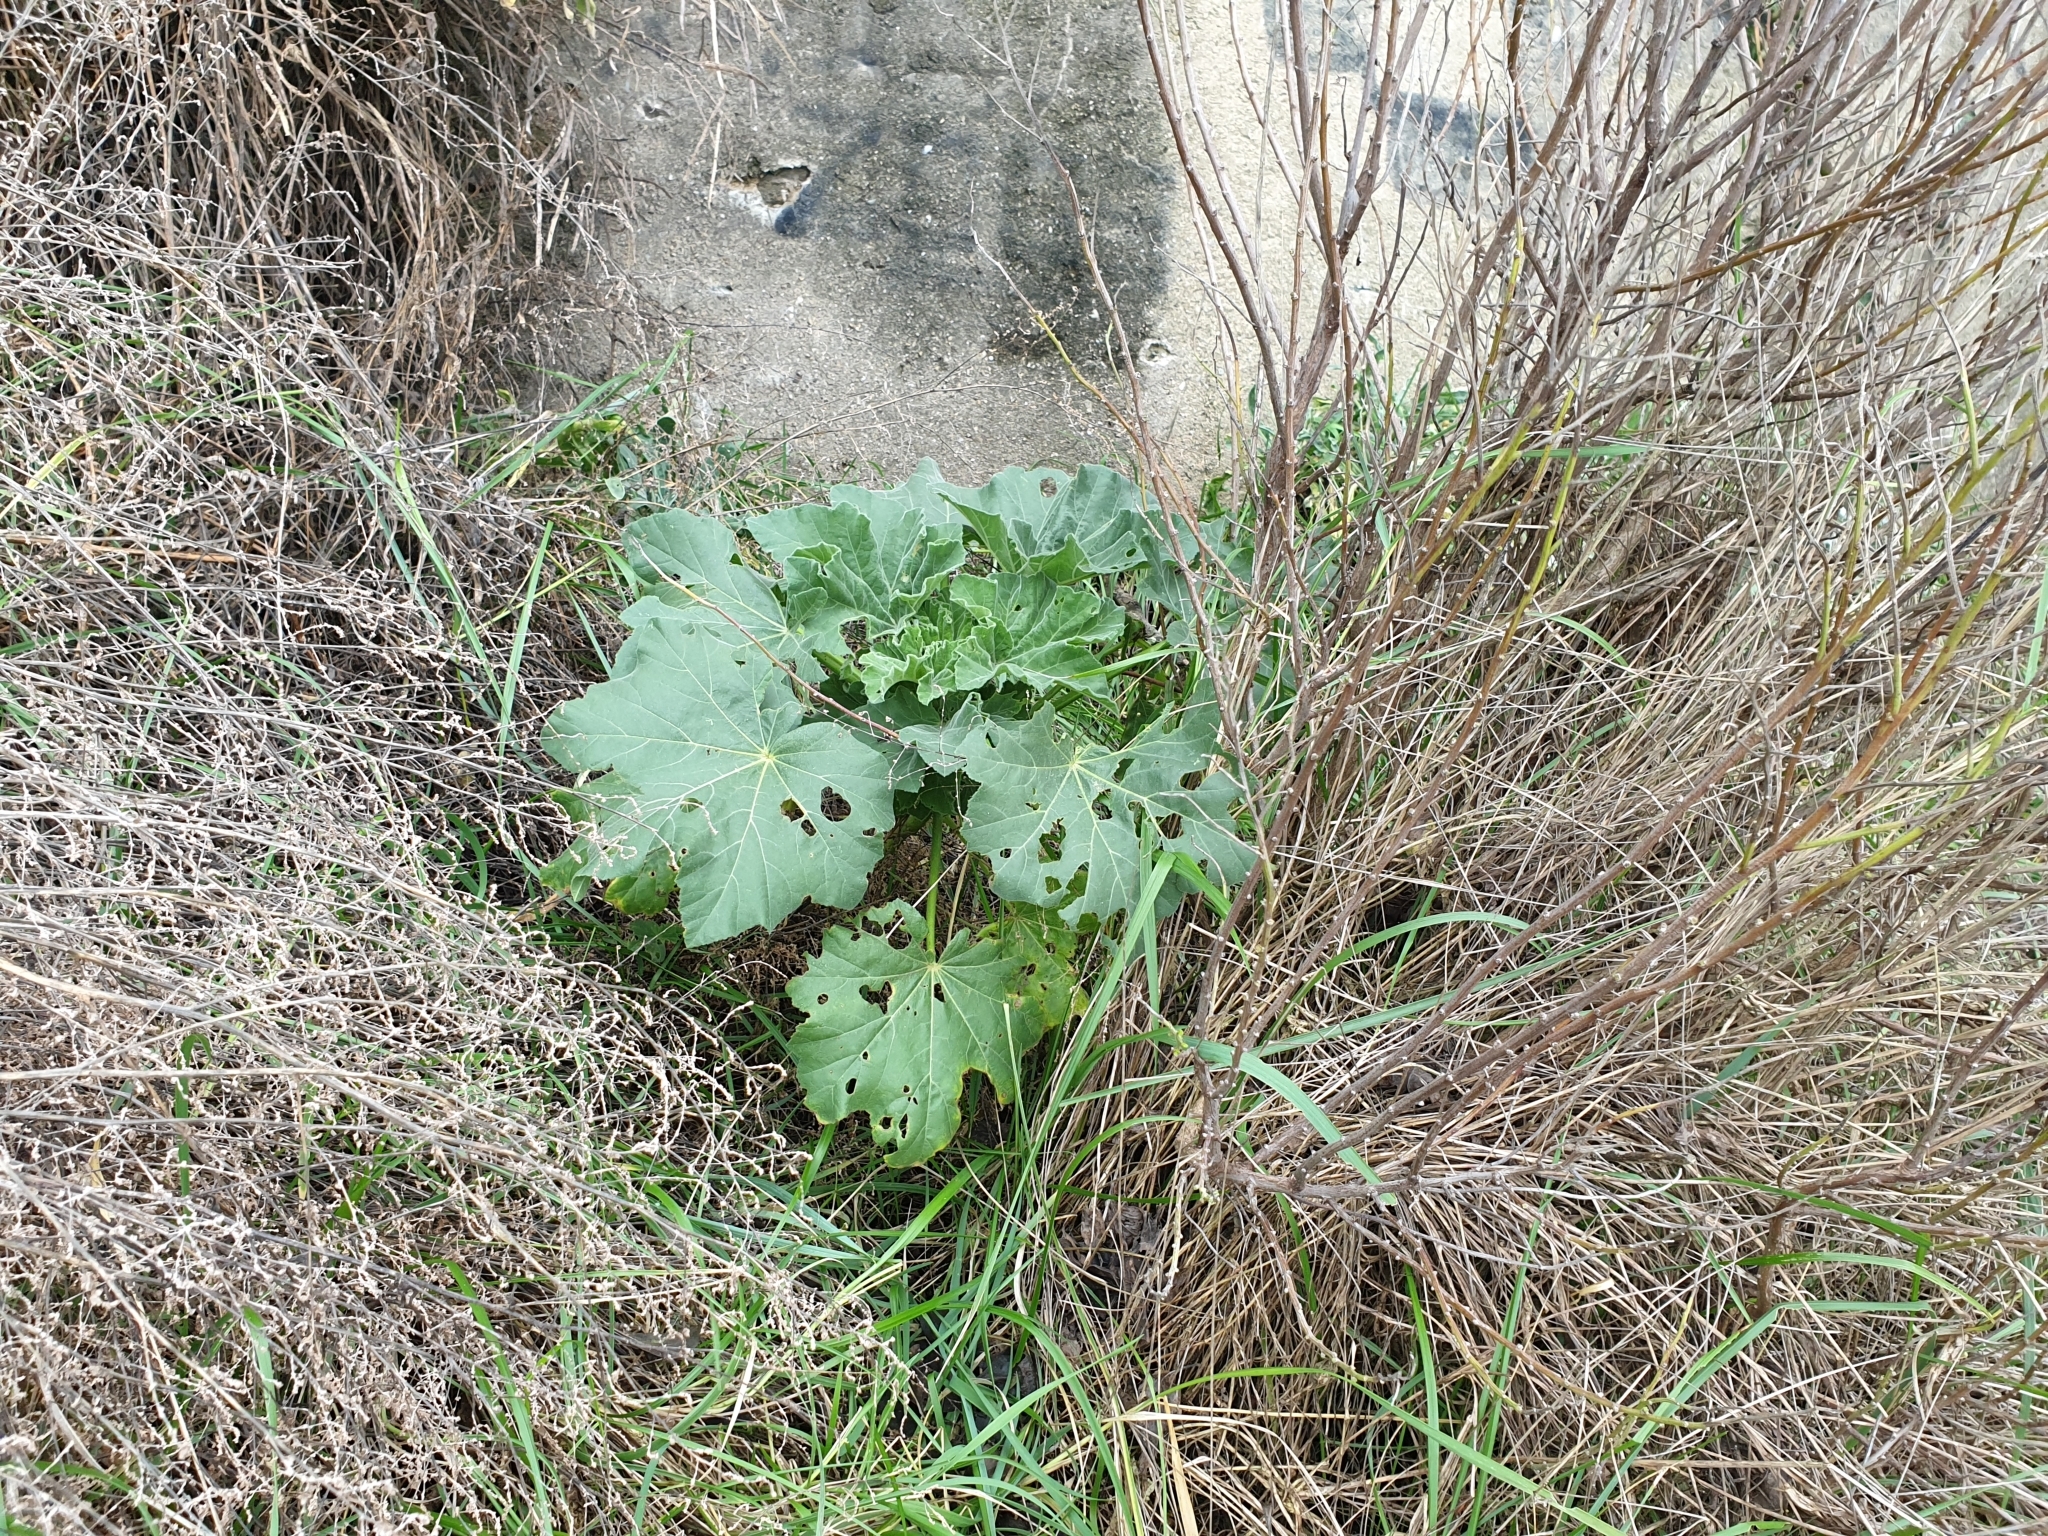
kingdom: Plantae
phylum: Tracheophyta
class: Magnoliopsida
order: Malvales
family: Malvaceae
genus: Malva
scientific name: Malva arborea
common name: Tree mallow
